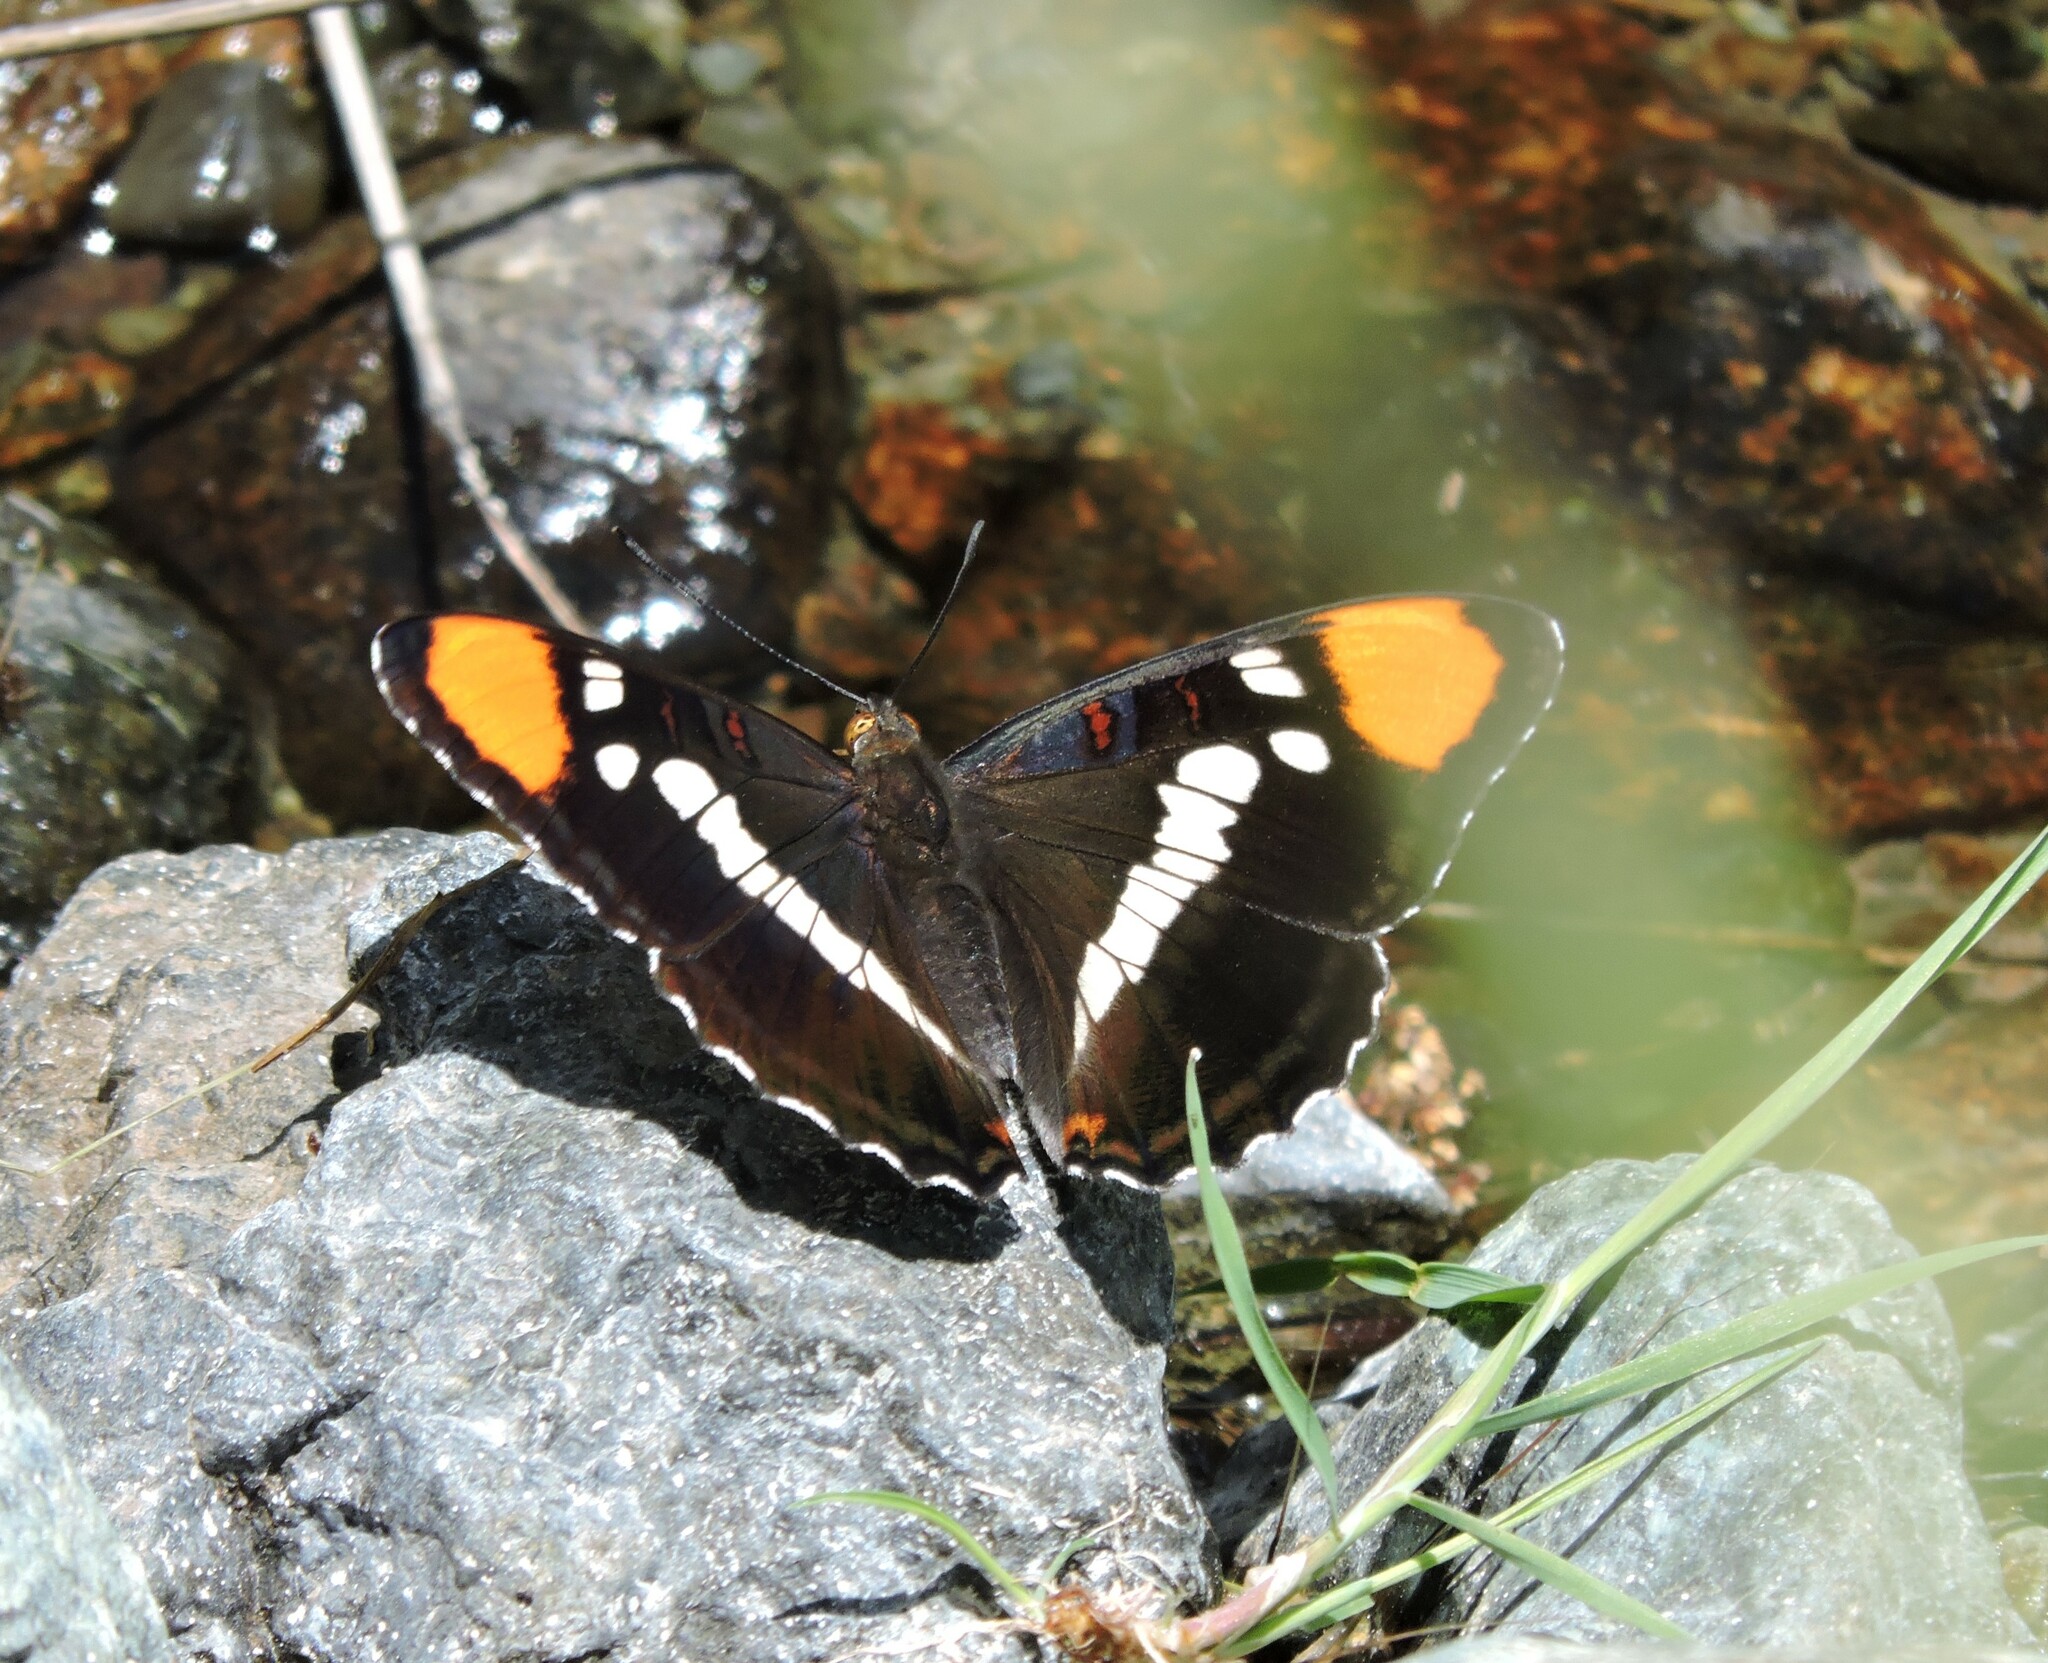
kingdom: Animalia
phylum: Arthropoda
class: Insecta
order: Lepidoptera
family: Nymphalidae
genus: Limenitis
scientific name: Limenitis bredowii
